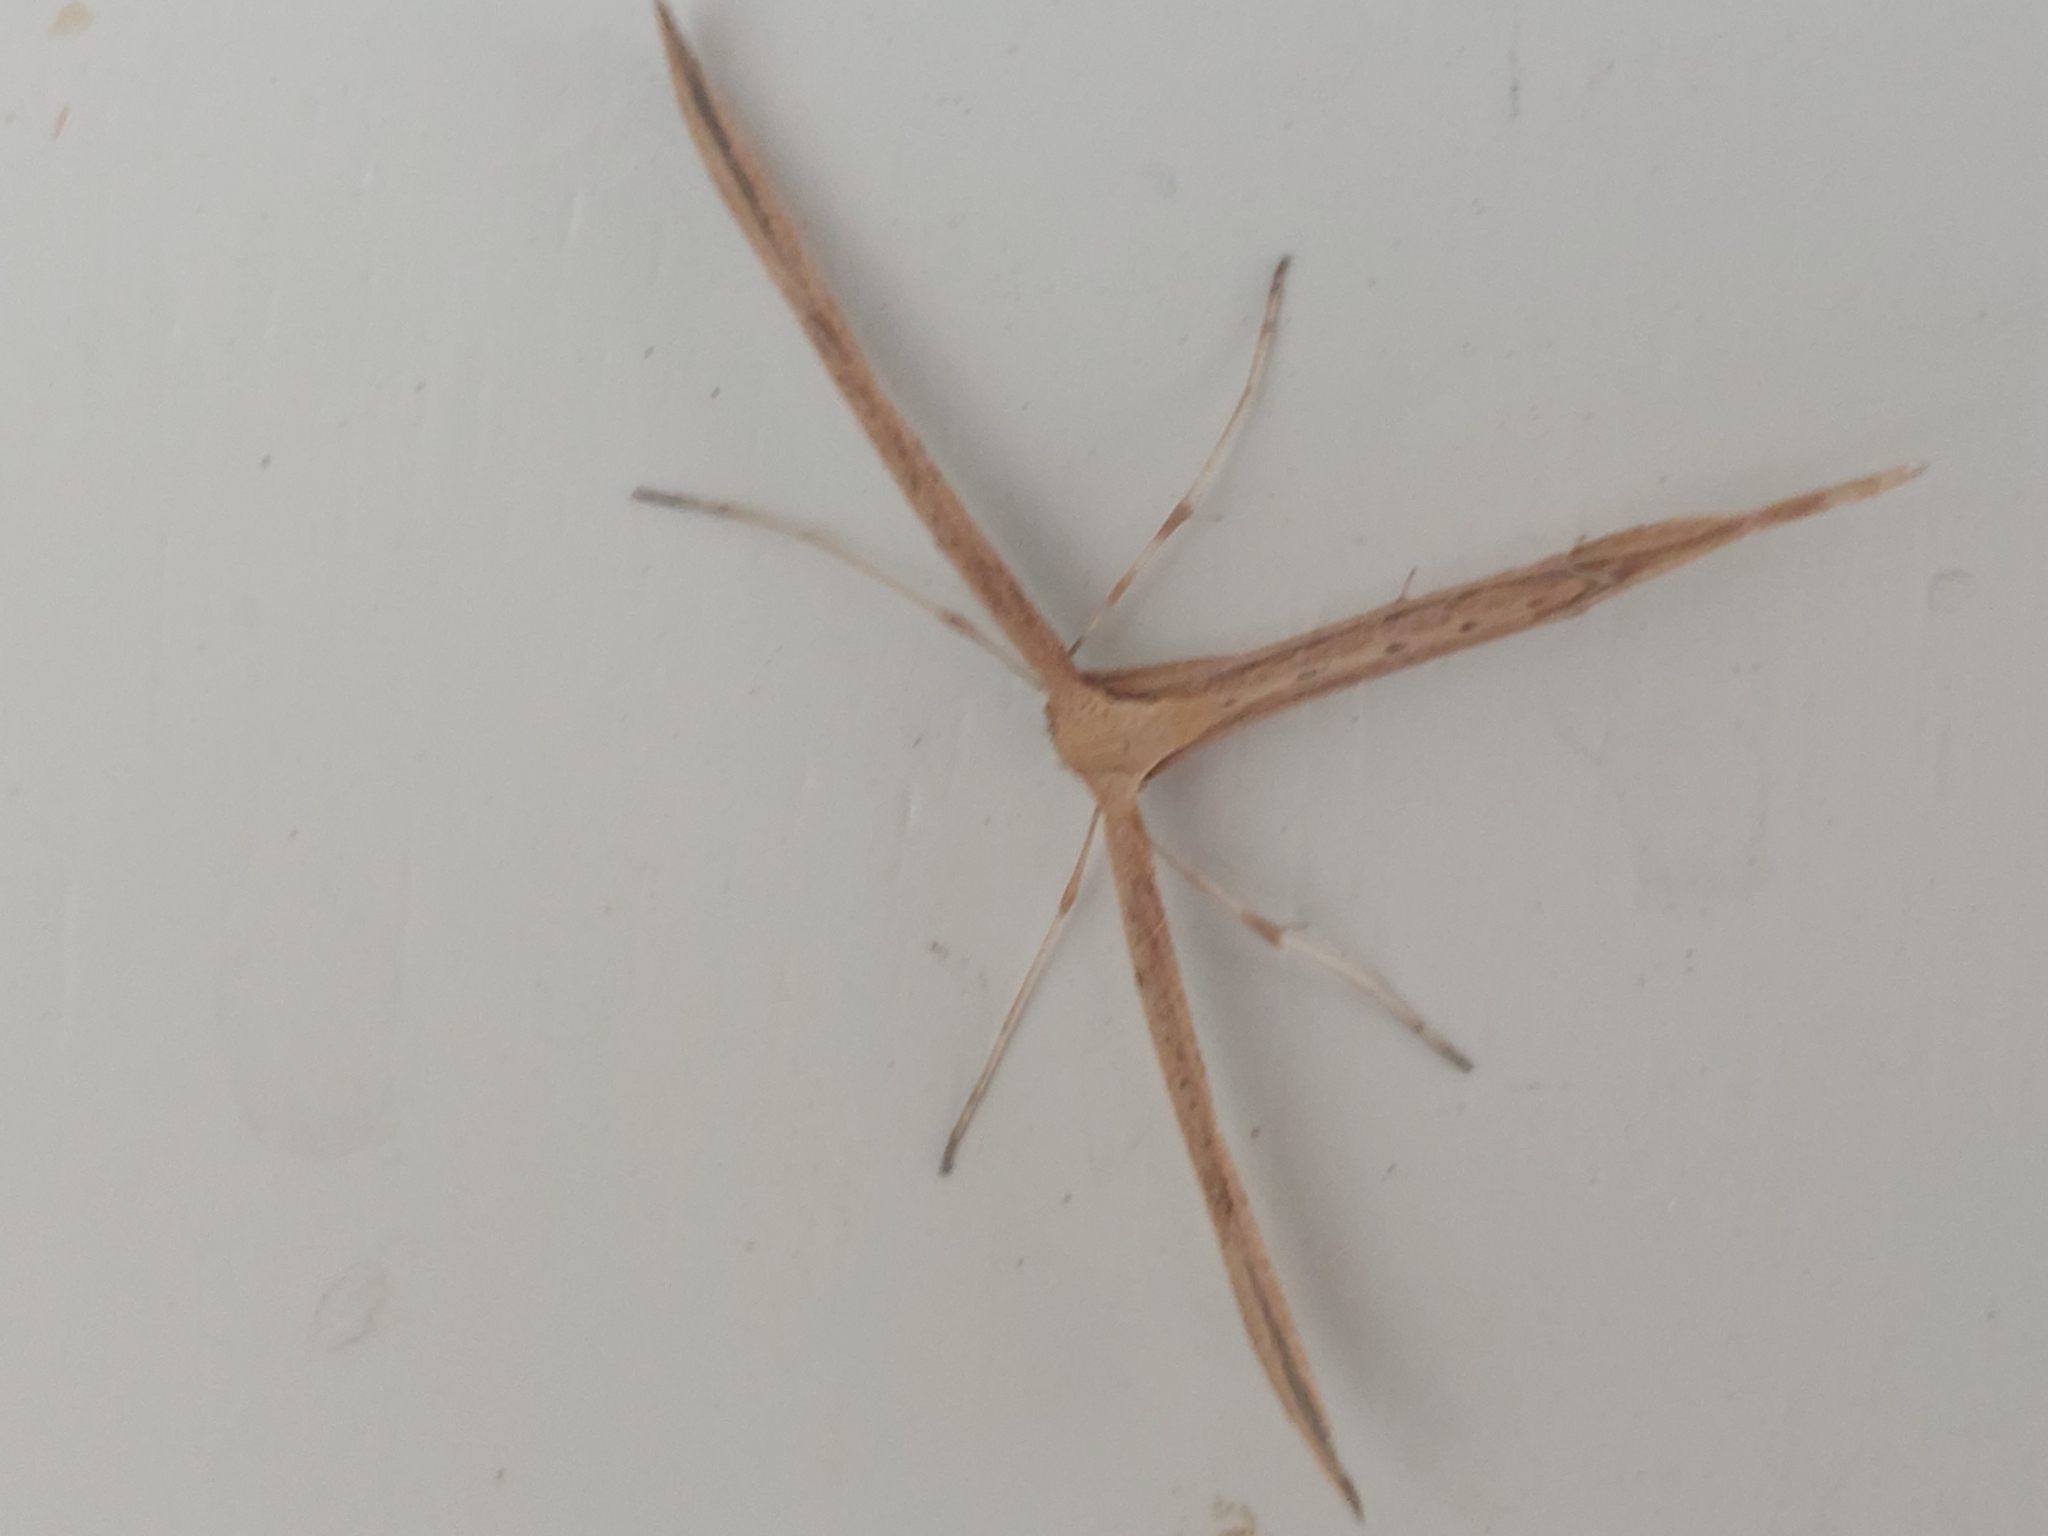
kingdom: Animalia
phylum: Arthropoda
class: Insecta
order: Lepidoptera
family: Pterophoridae
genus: Emmelina
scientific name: Emmelina monodactyla
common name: Common plume
